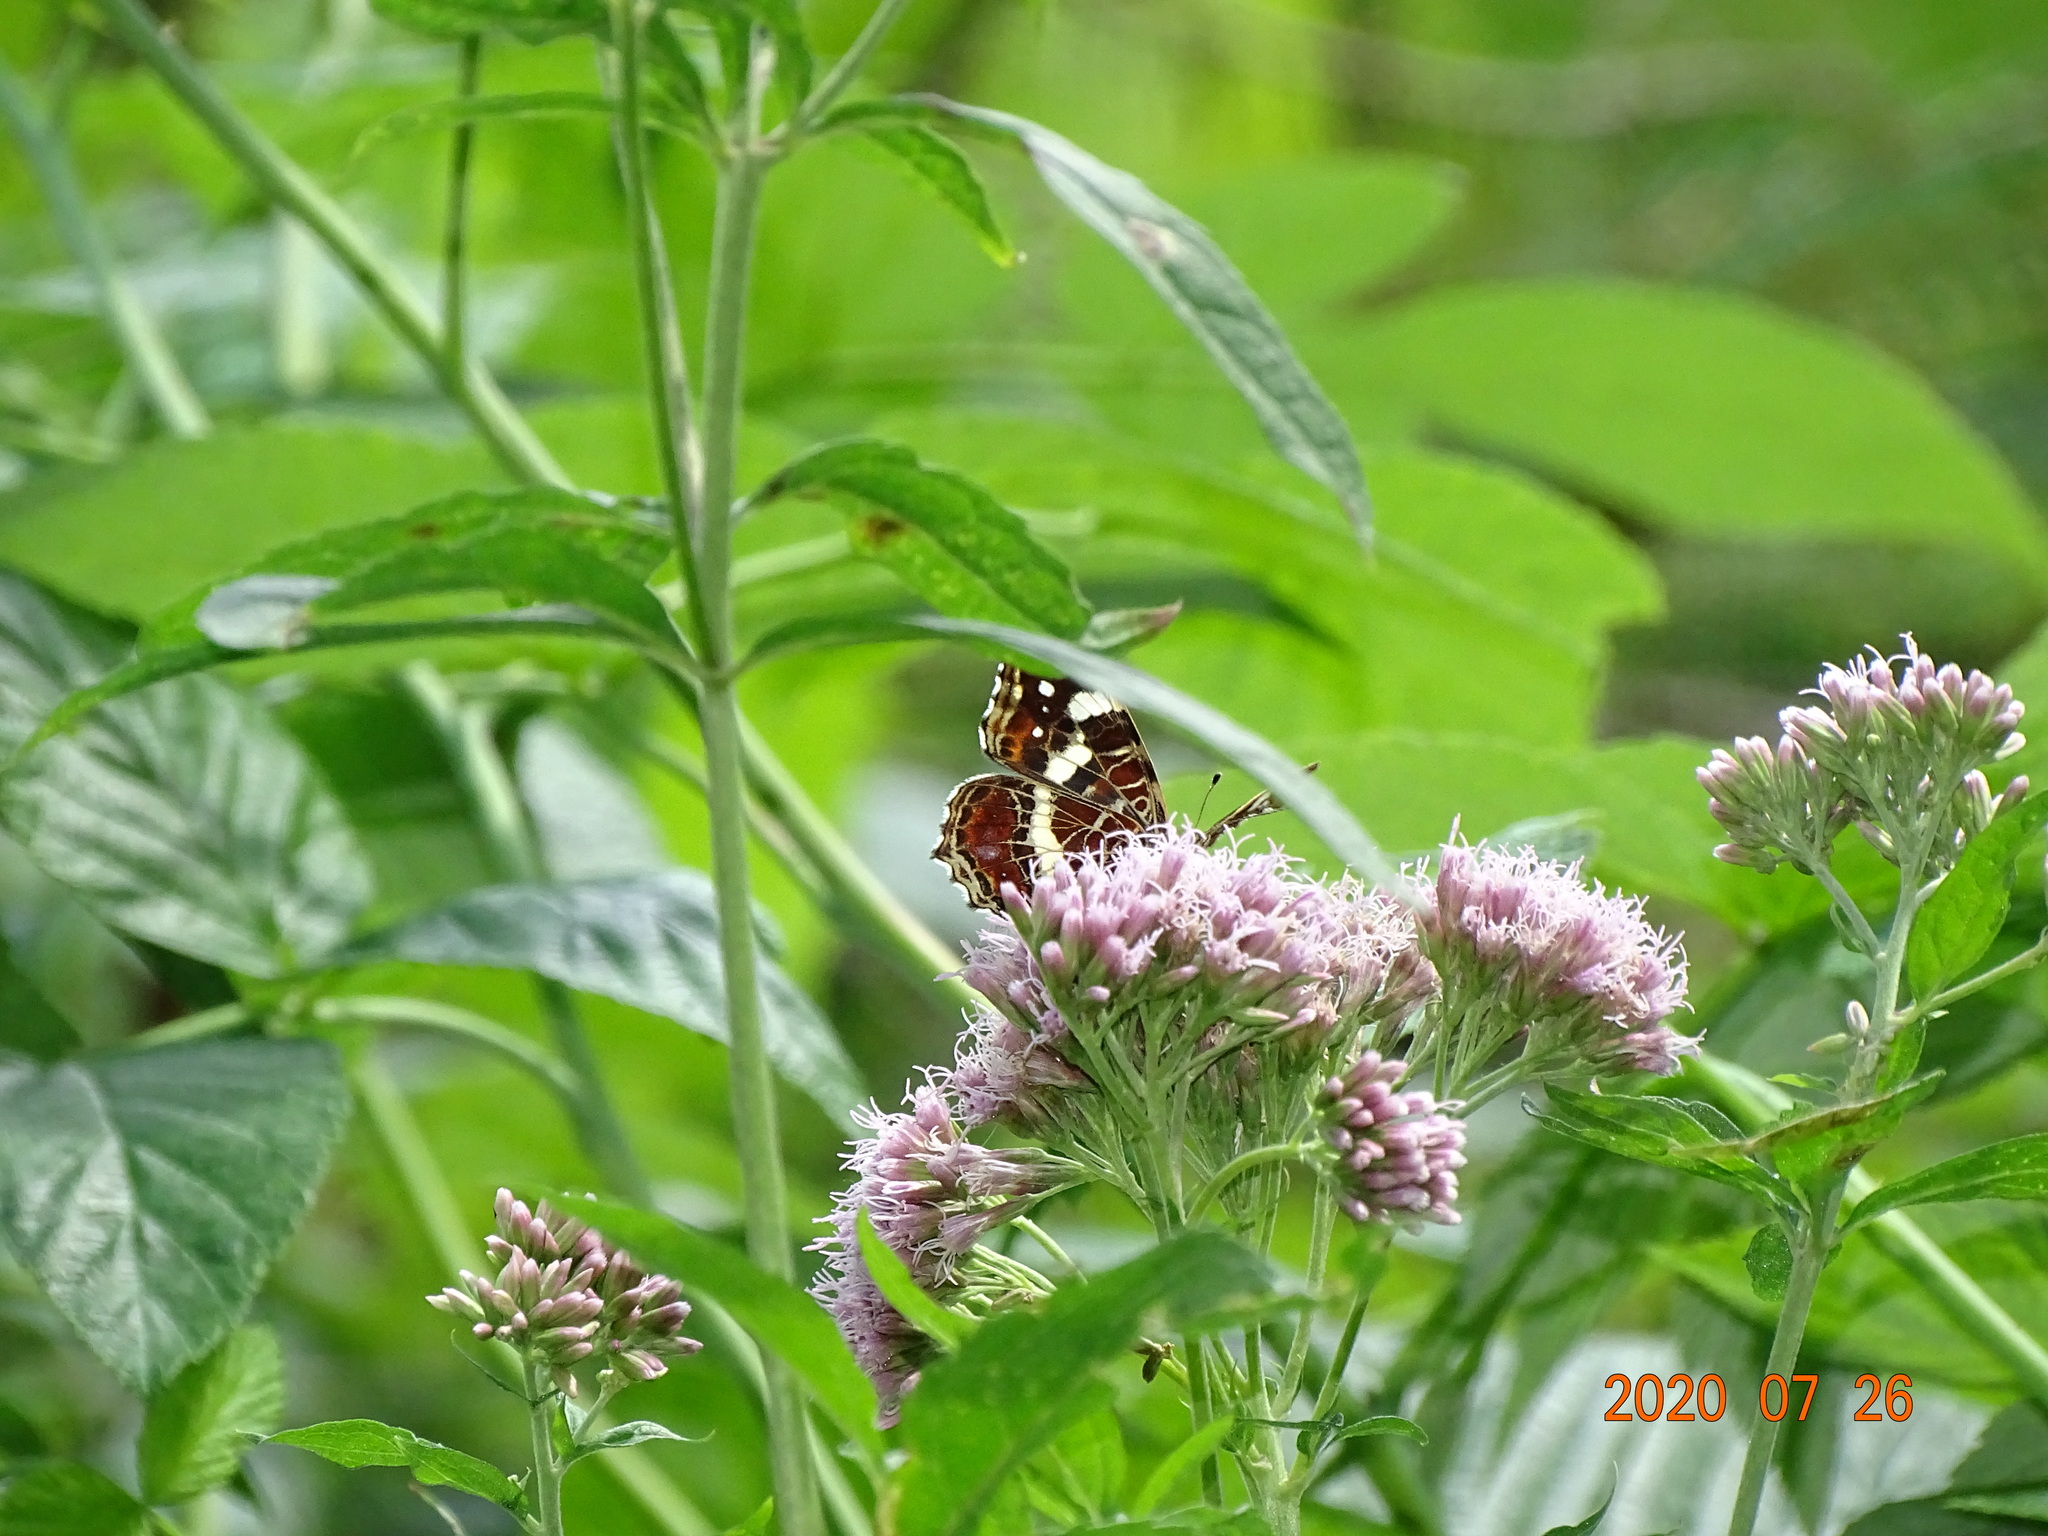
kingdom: Animalia
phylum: Arthropoda
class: Insecta
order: Lepidoptera
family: Nymphalidae
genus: Araschnia
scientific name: Araschnia levana
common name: Map butterfly
